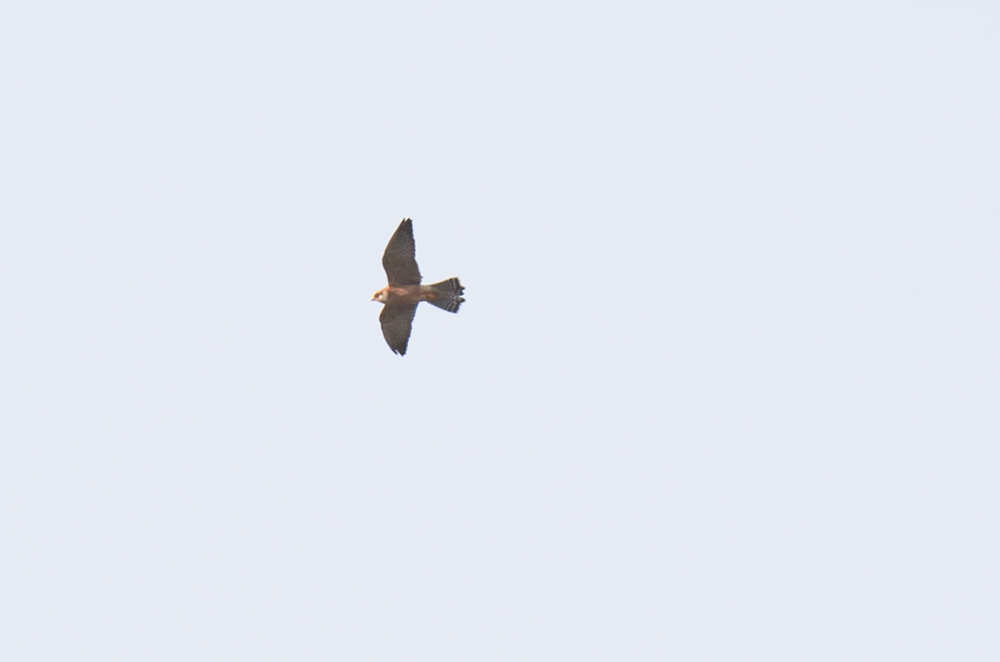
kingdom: Animalia
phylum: Chordata
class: Aves
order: Falconiformes
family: Falconidae
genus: Falco
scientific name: Falco vespertinus
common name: Red-footed falcon
